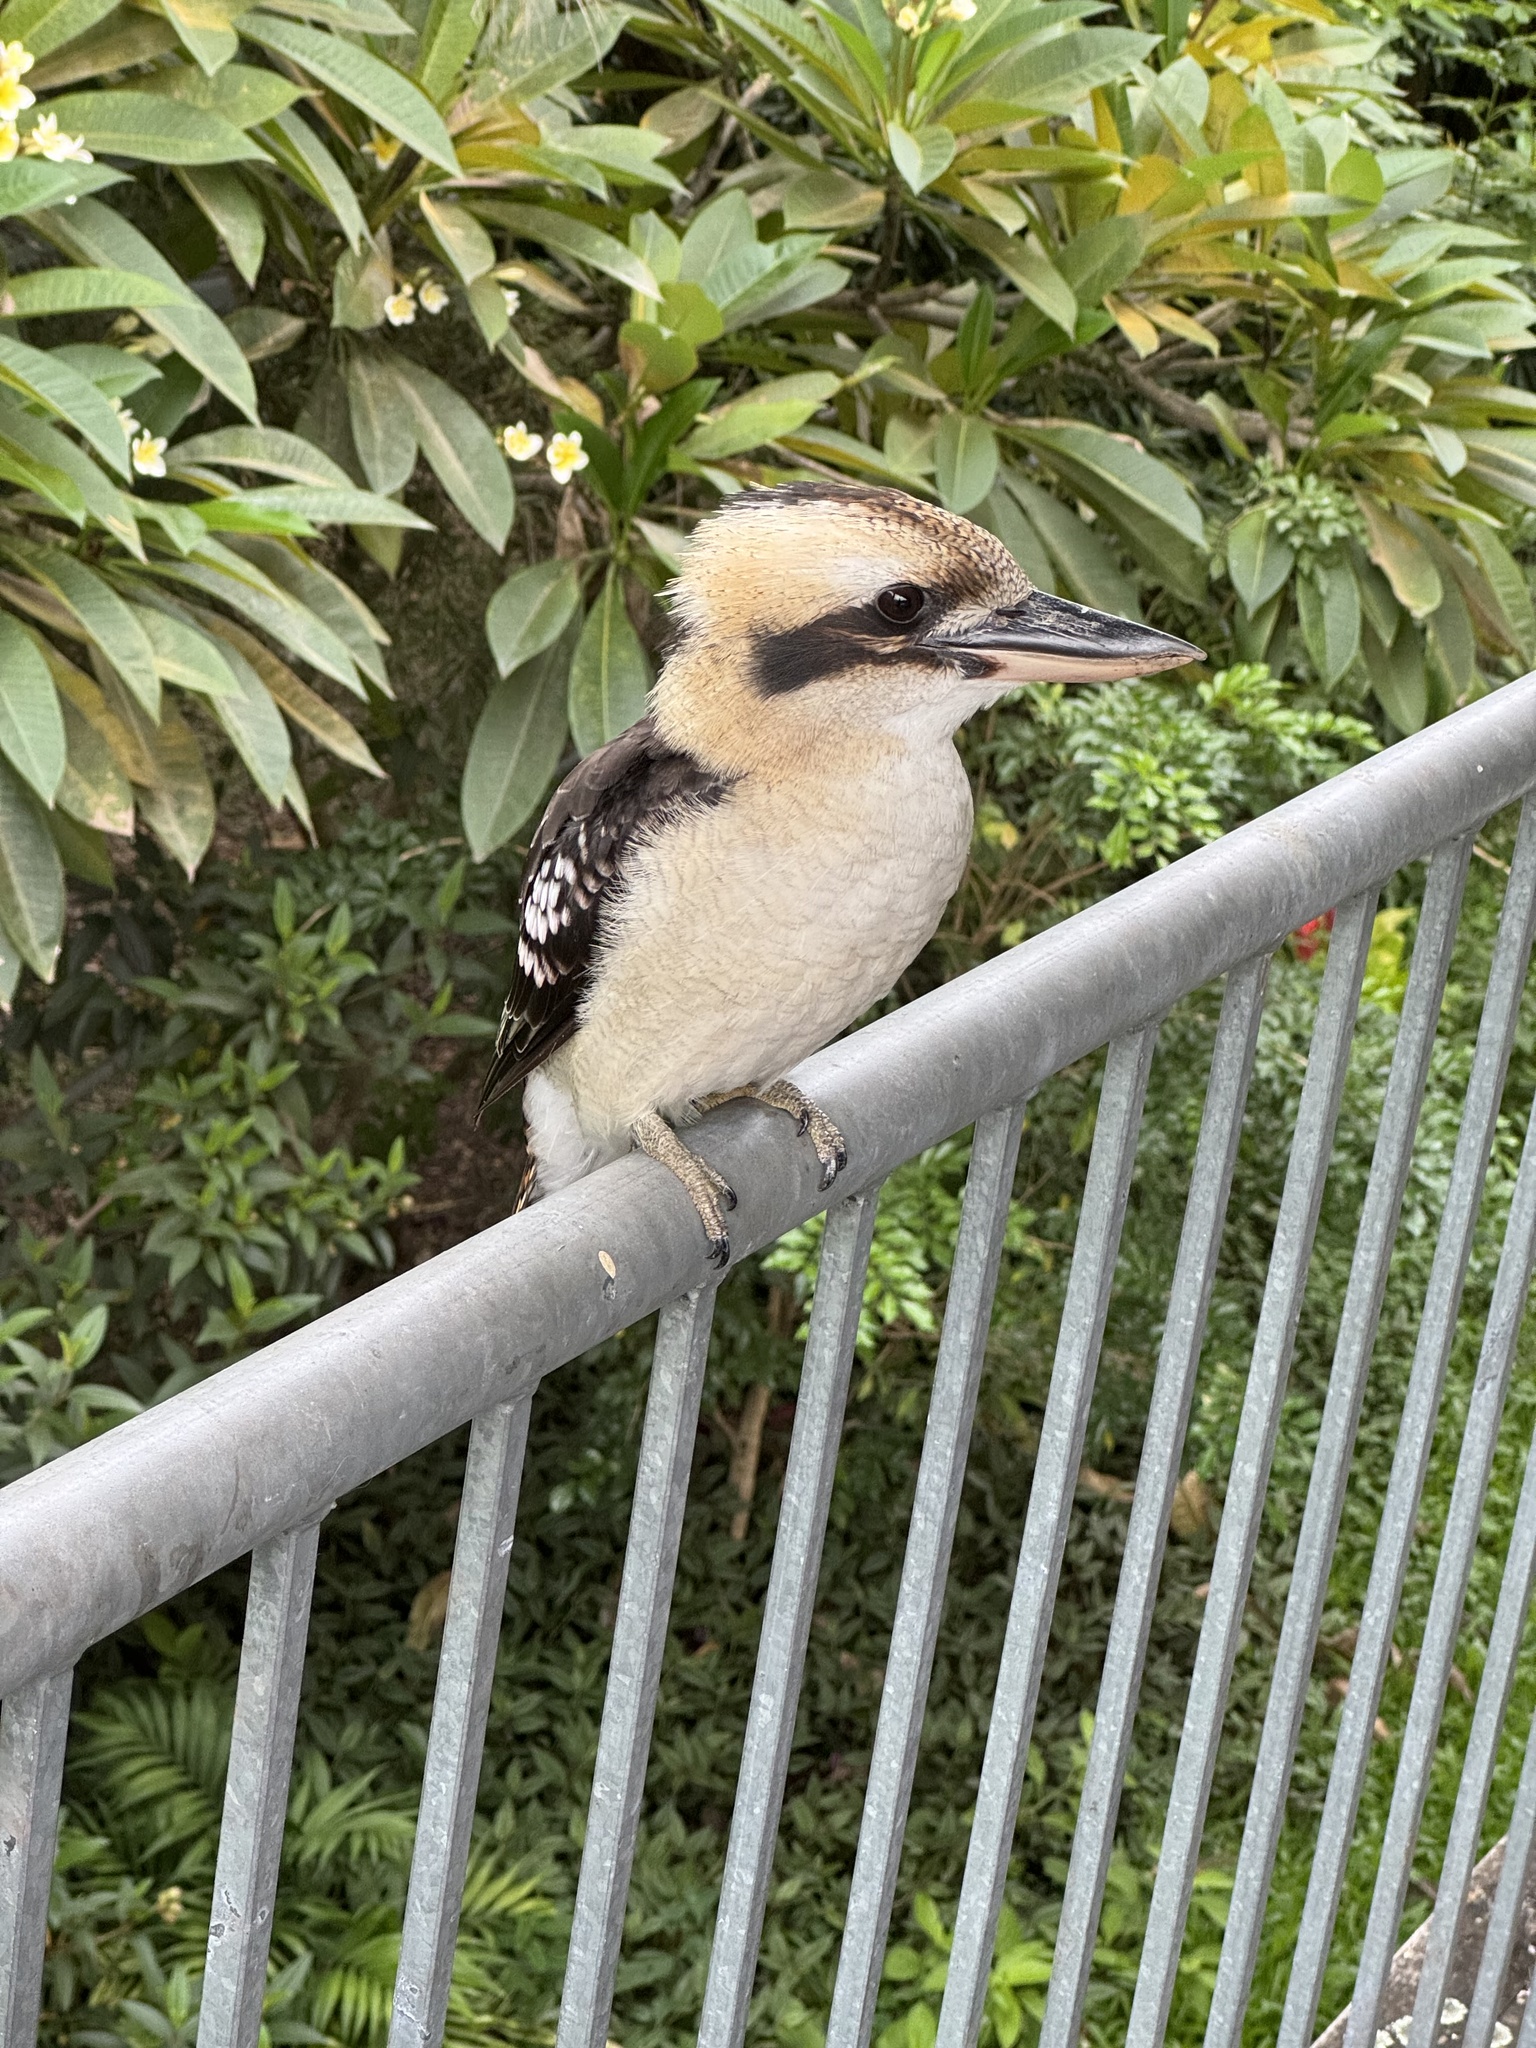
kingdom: Animalia
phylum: Chordata
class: Aves
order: Coraciiformes
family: Alcedinidae
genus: Dacelo
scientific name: Dacelo novaeguineae
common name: Laughing kookaburra
